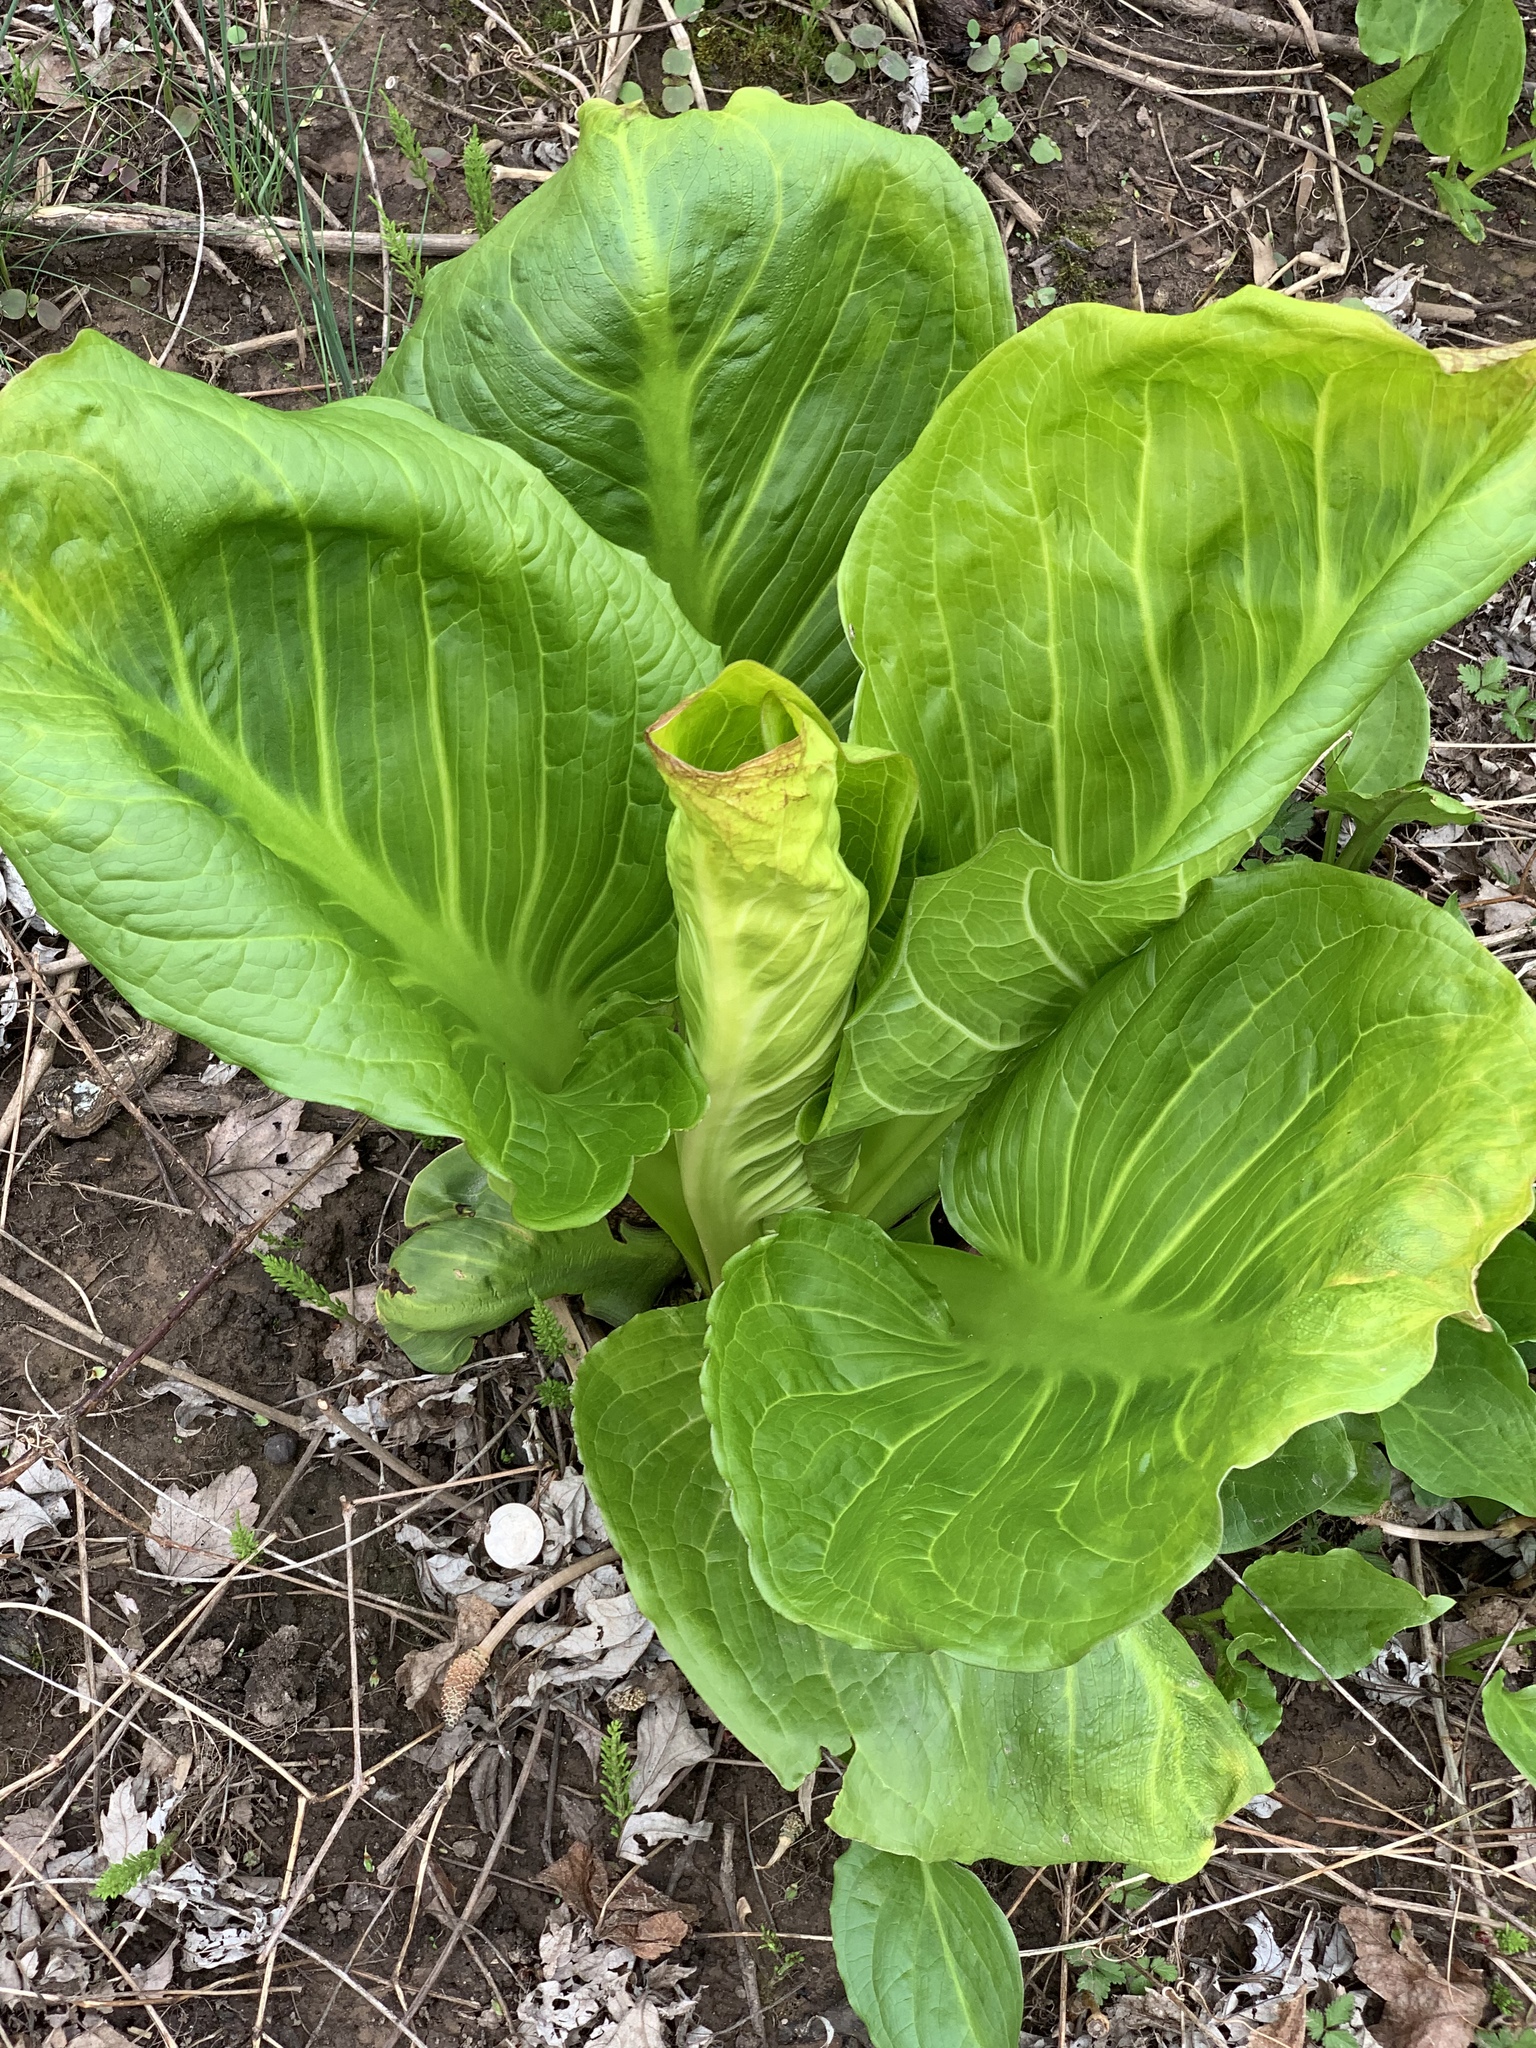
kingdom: Plantae
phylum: Tracheophyta
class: Liliopsida
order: Alismatales
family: Araceae
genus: Symplocarpus
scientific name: Symplocarpus foetidus
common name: Eastern skunk cabbage
